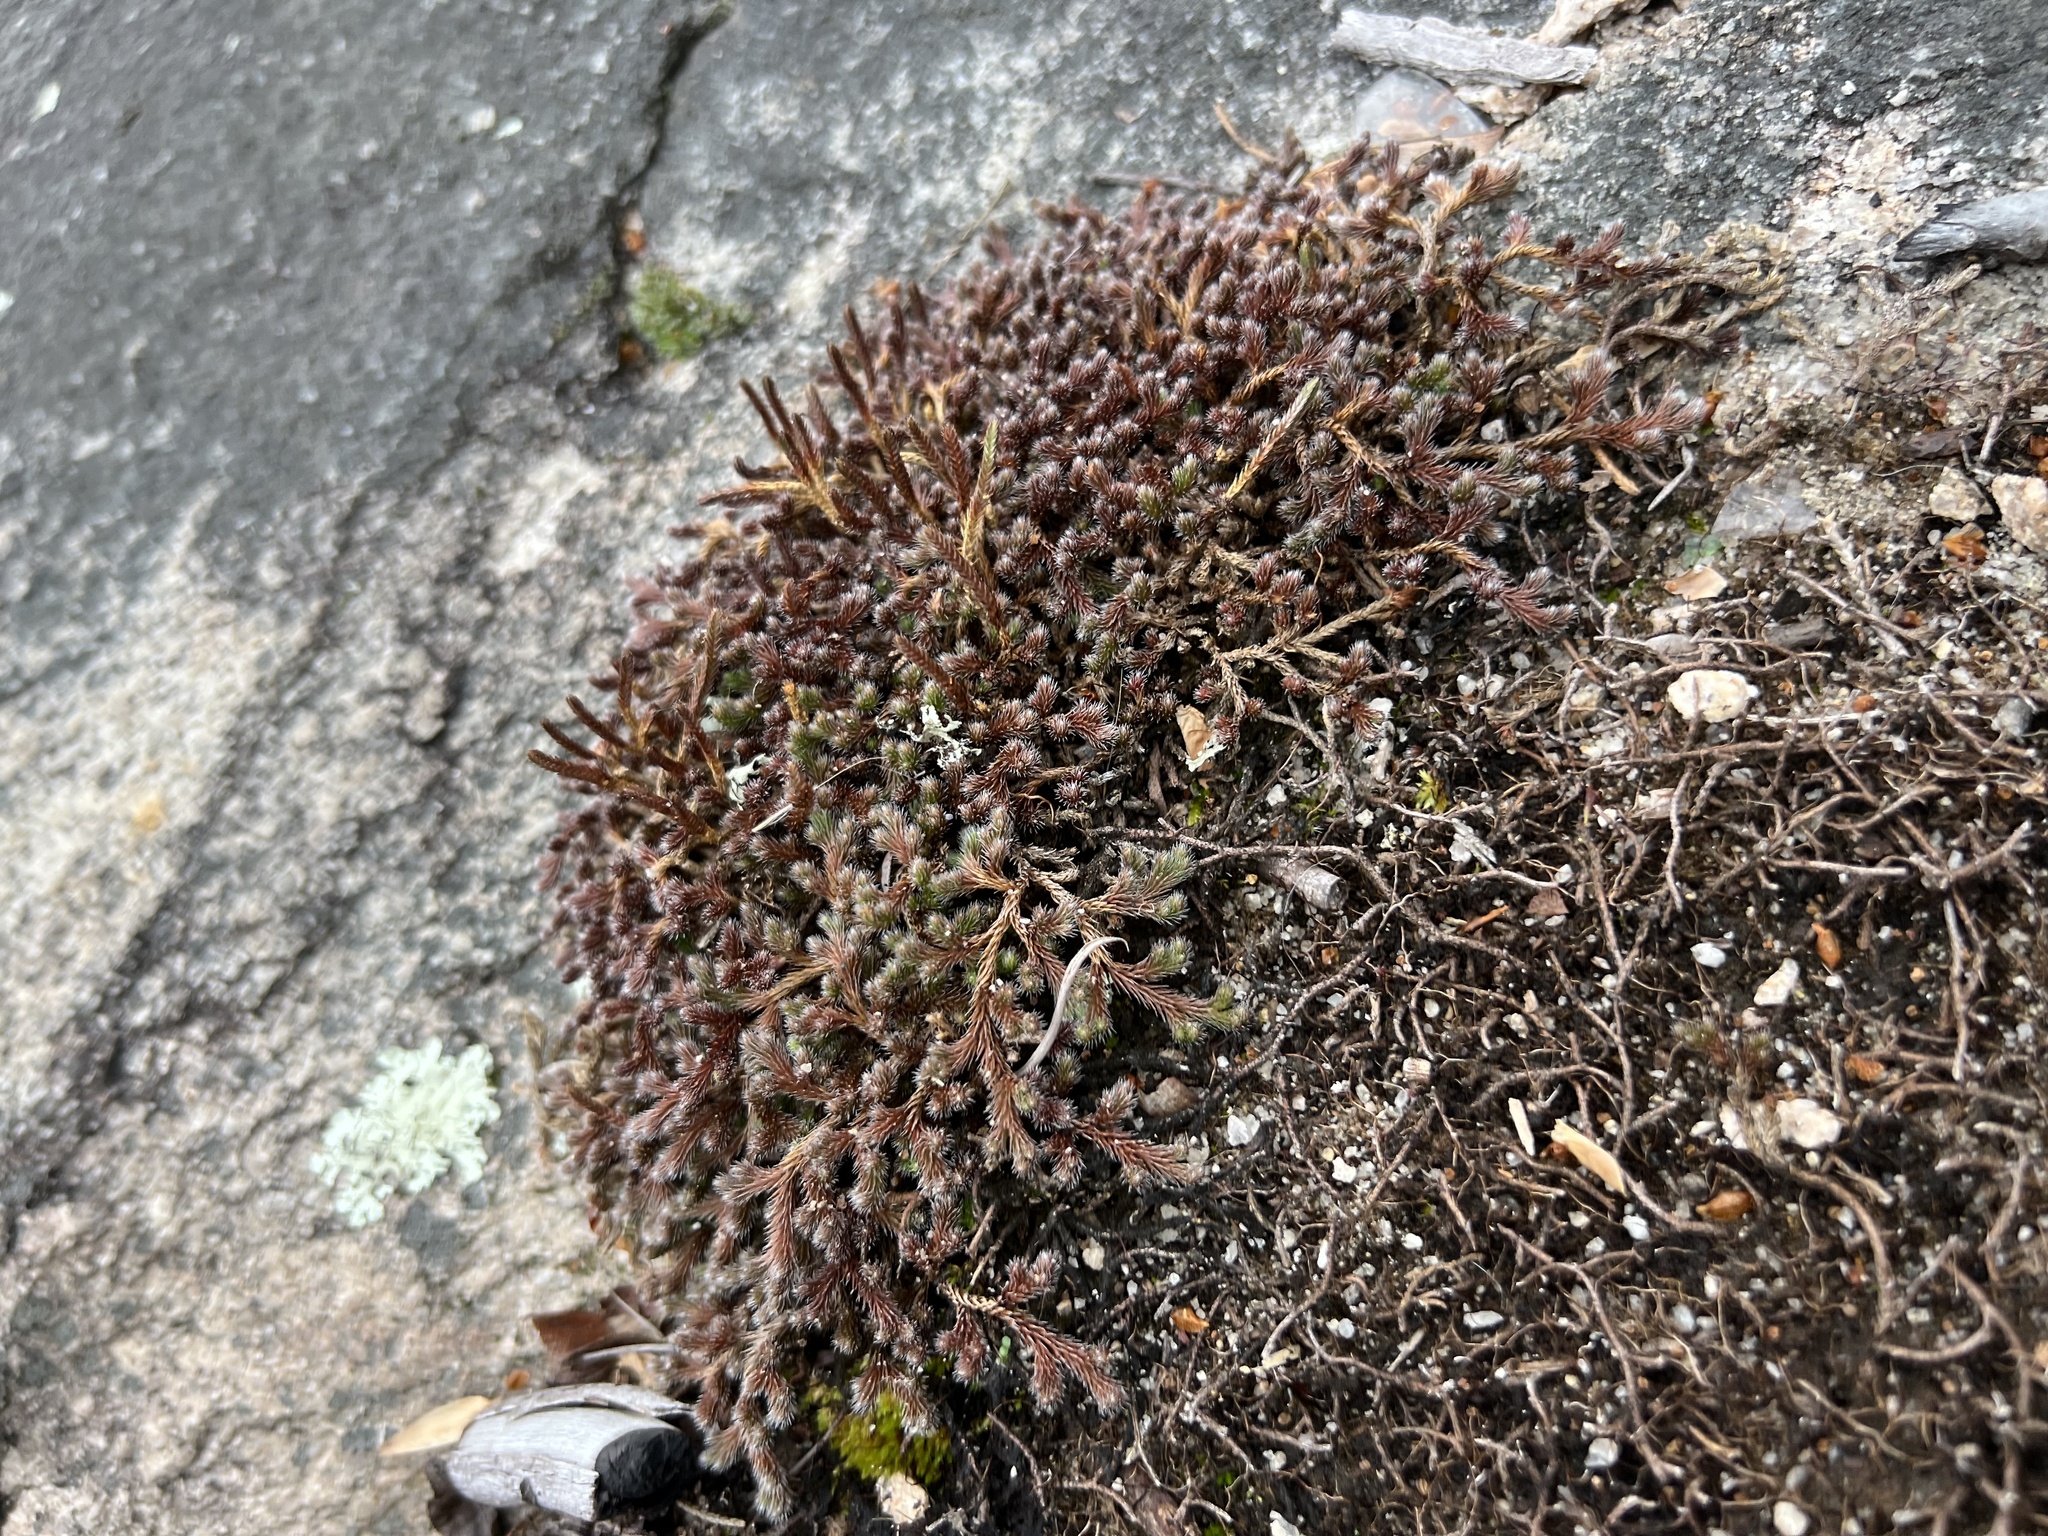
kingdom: Plantae
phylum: Tracheophyta
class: Lycopodiopsida
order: Selaginellales
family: Selaginellaceae
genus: Selaginella
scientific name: Selaginella rupestris
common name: Dwarf spikemoss
